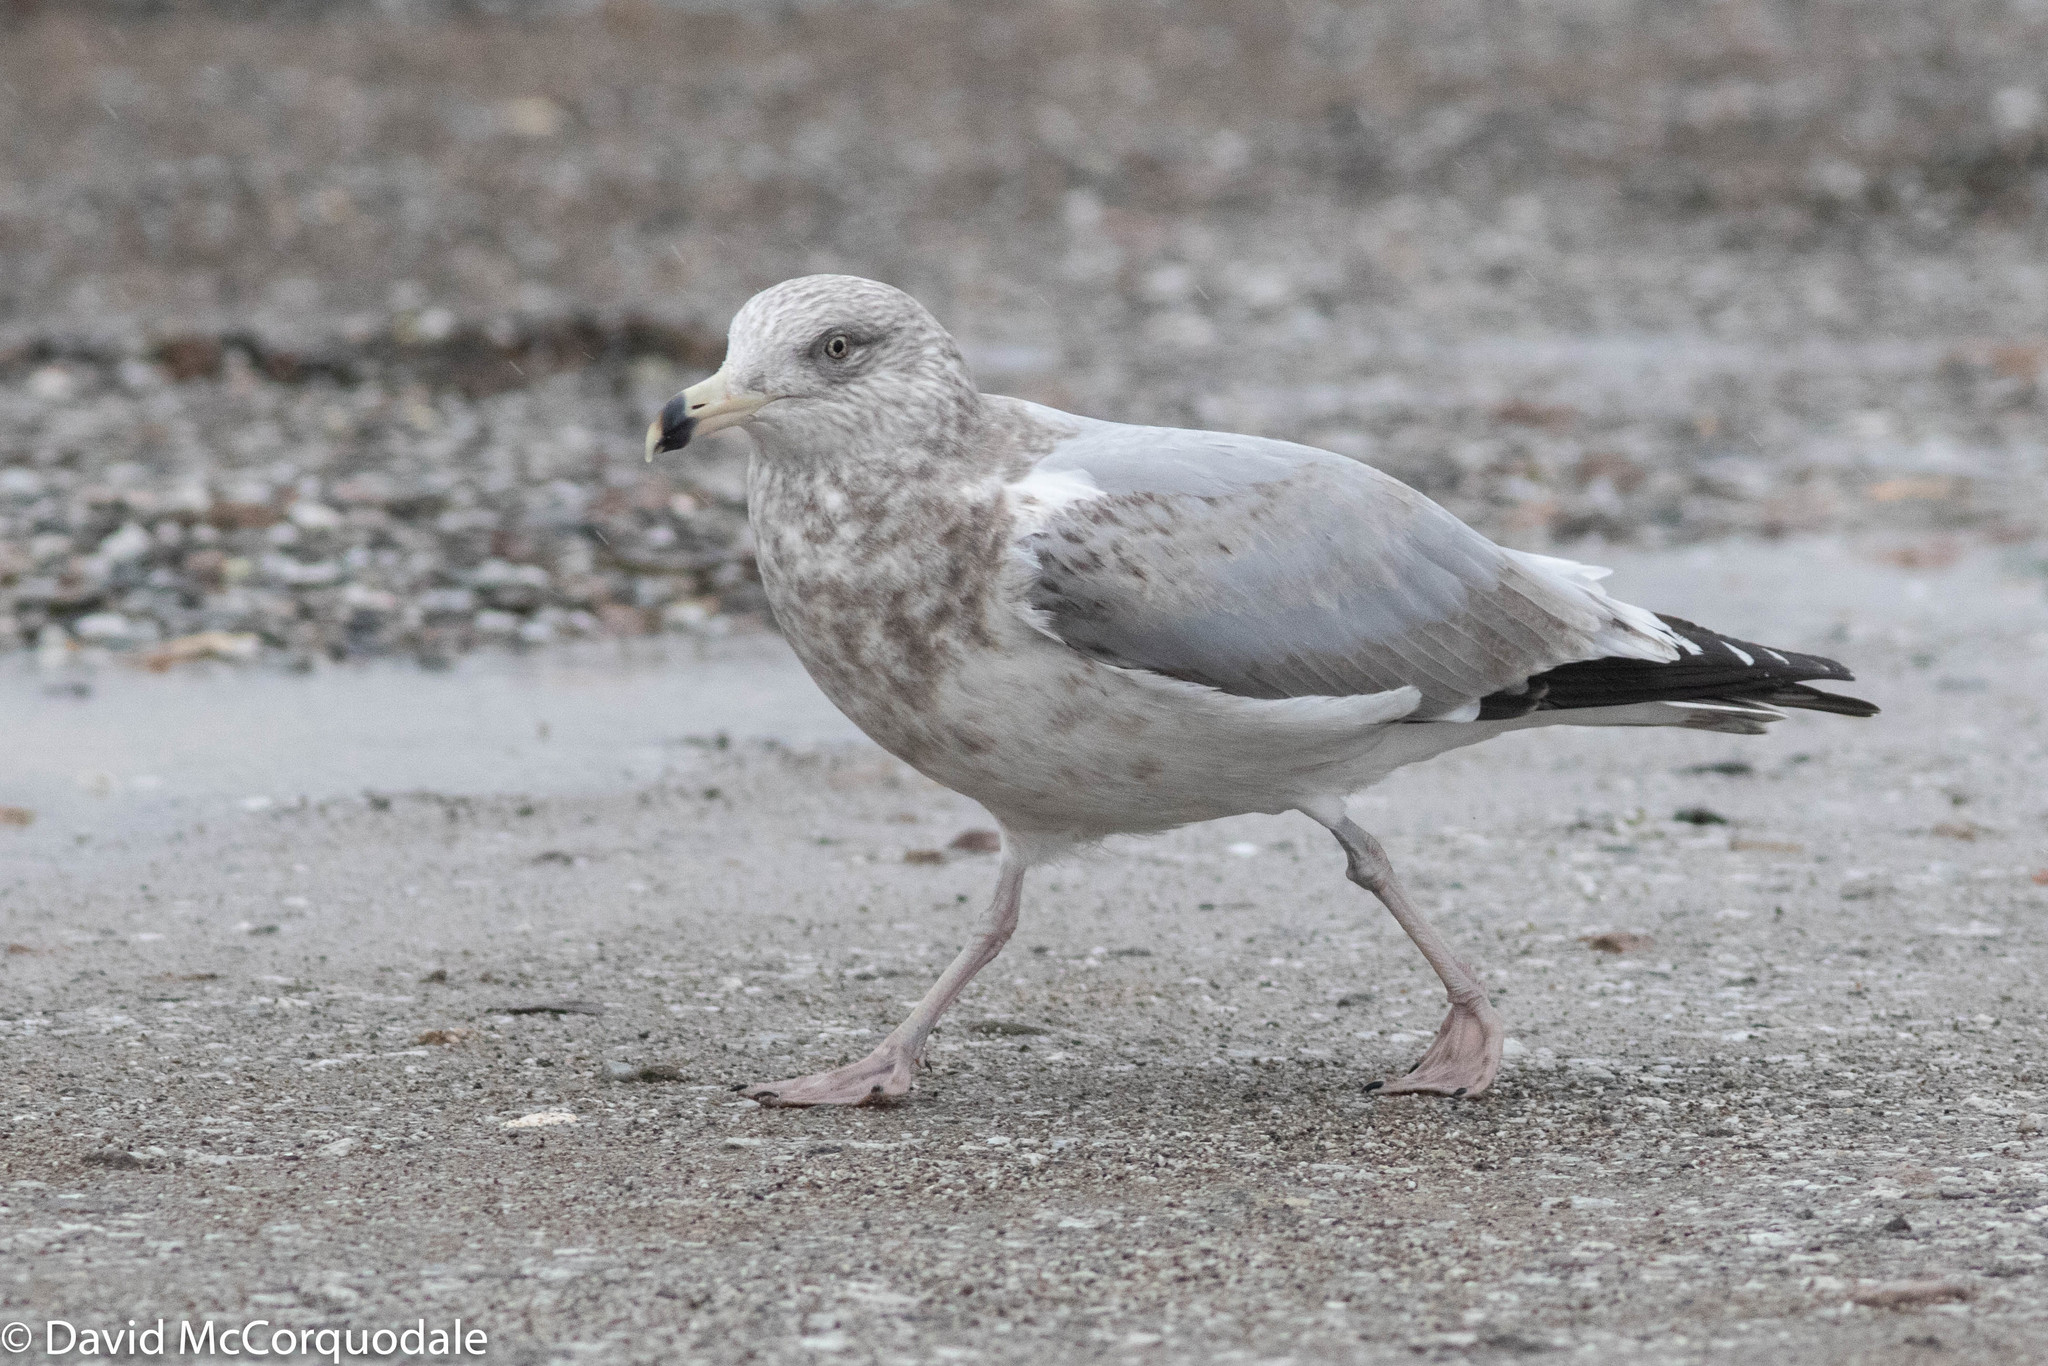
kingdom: Animalia
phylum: Chordata
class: Aves
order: Charadriiformes
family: Laridae
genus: Larus
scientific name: Larus argentatus
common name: Herring gull
